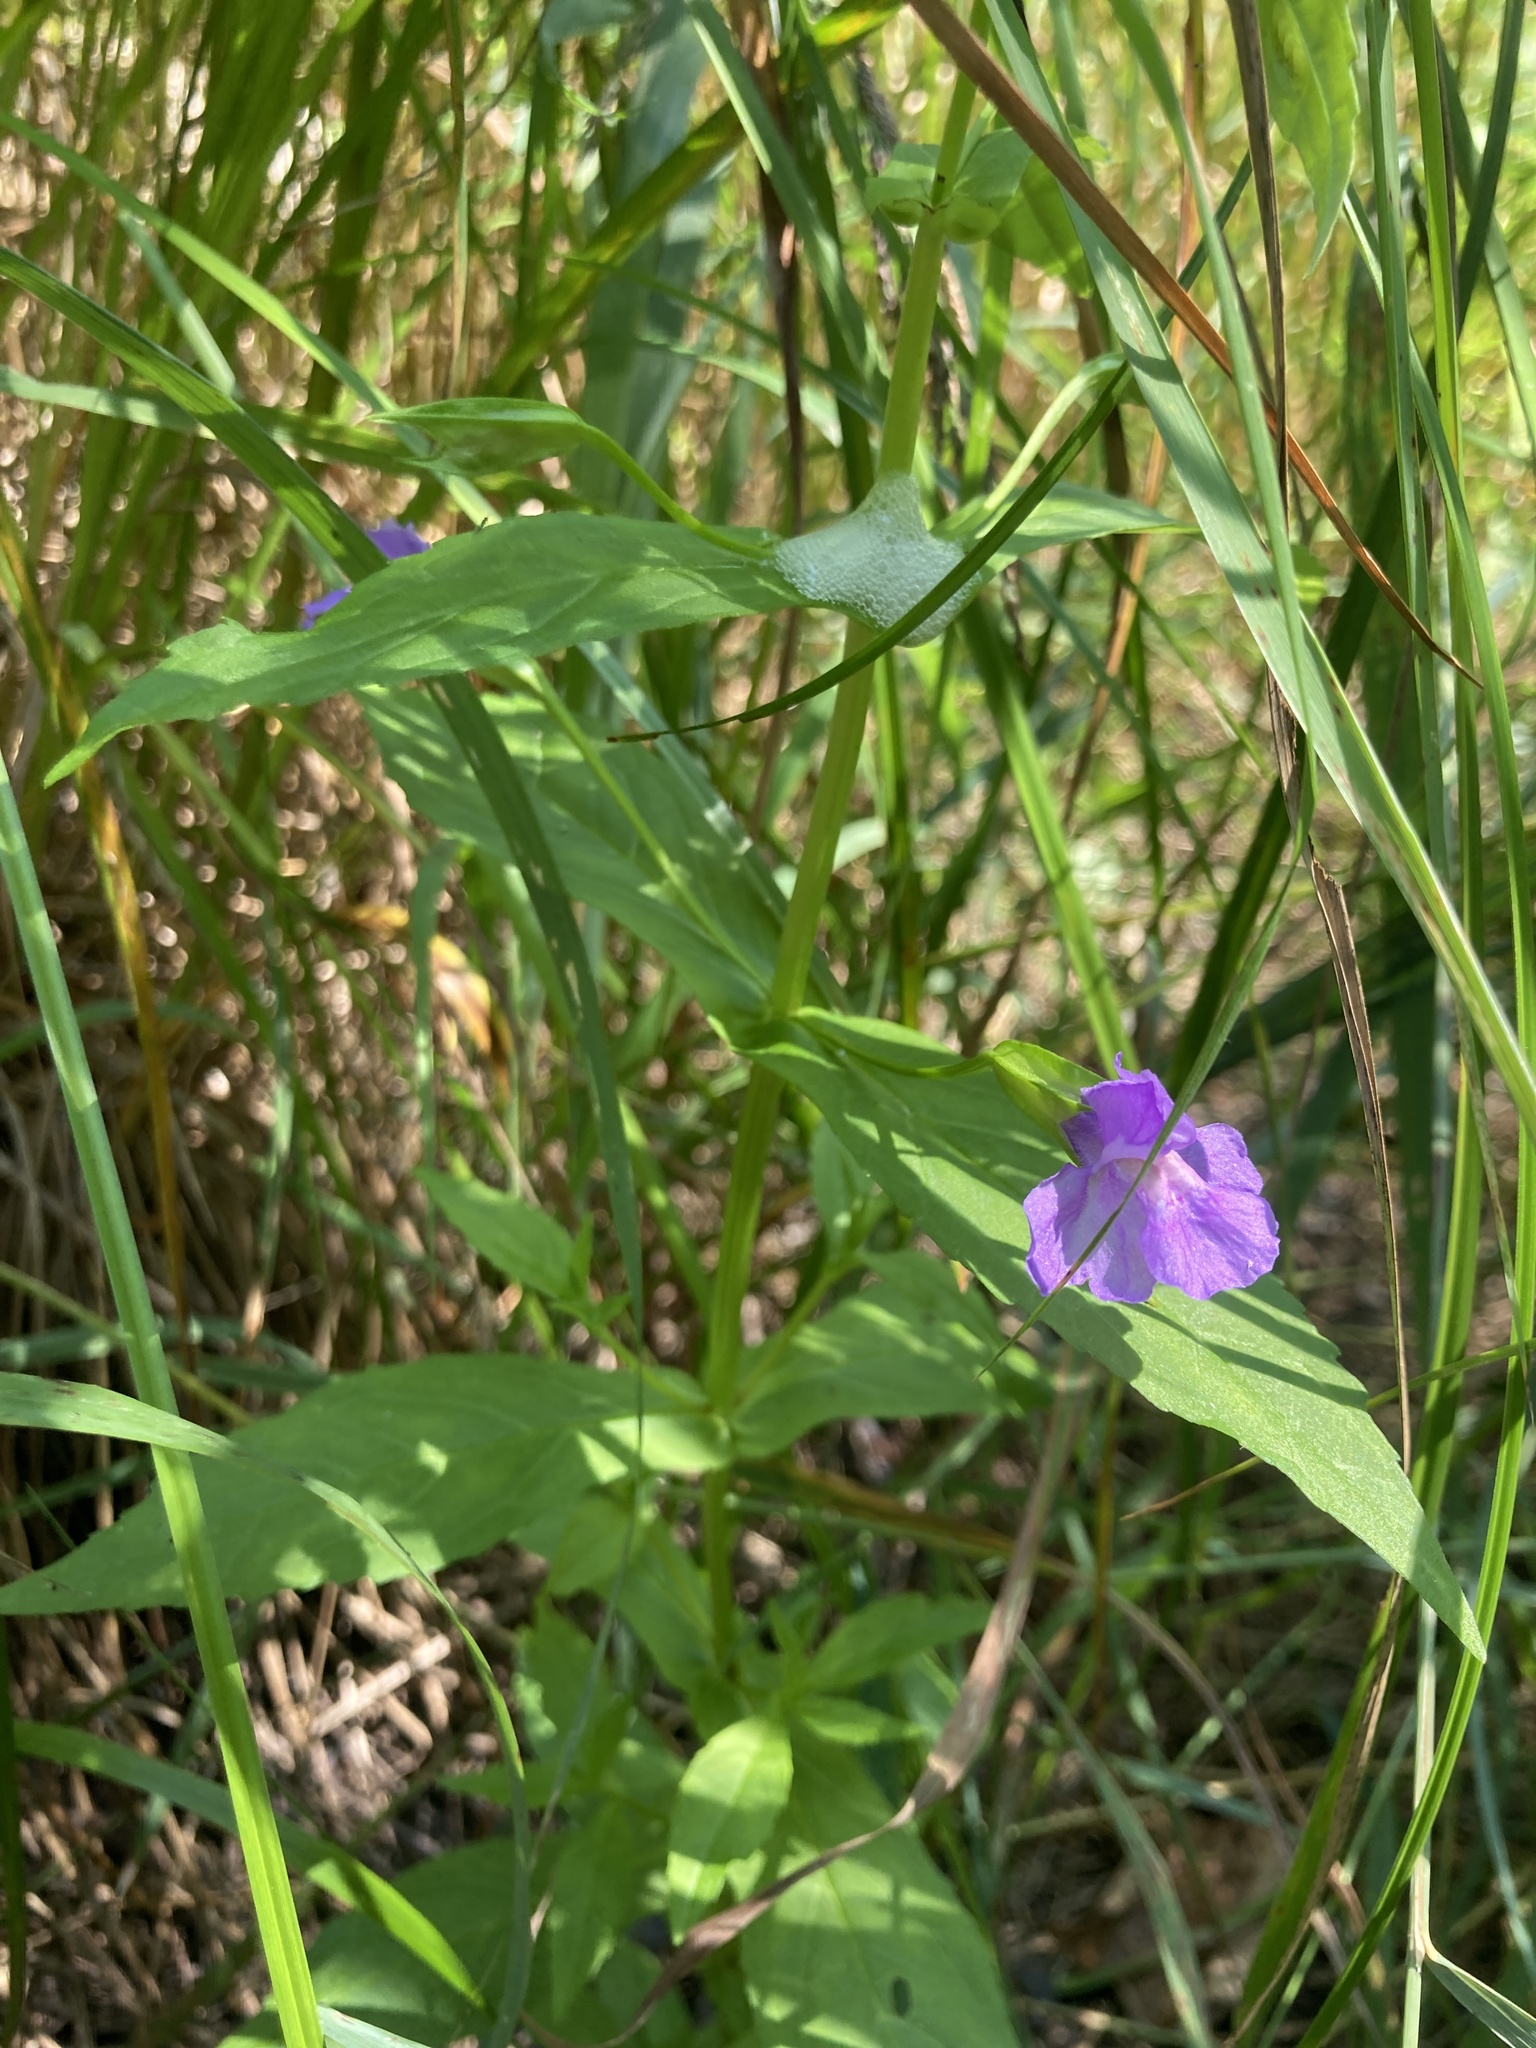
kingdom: Plantae
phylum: Tracheophyta
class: Magnoliopsida
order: Lamiales
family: Phrymaceae
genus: Mimulus
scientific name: Mimulus ringens
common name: Allegheny monkeyflower
